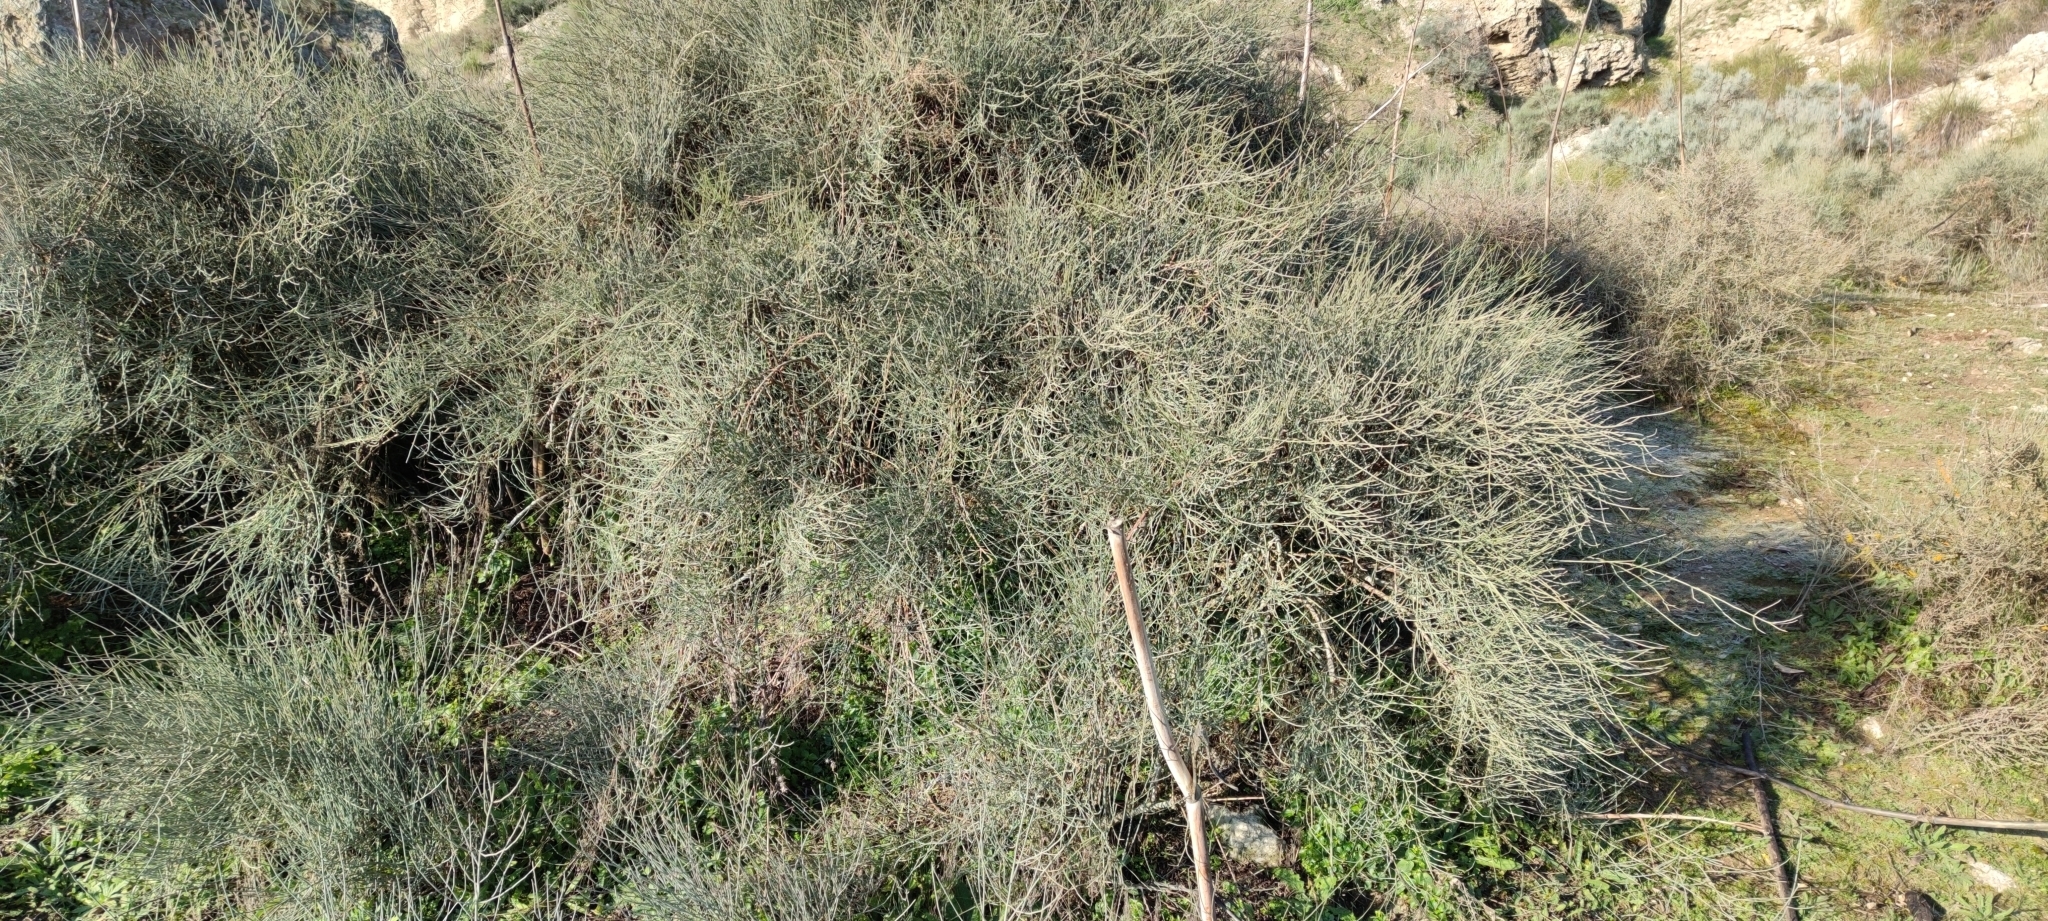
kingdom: Plantae
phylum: Tracheophyta
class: Gnetopsida
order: Ephedrales
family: Ephedraceae
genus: Ephedra
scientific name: Ephedra fragilis
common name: Joint pine
